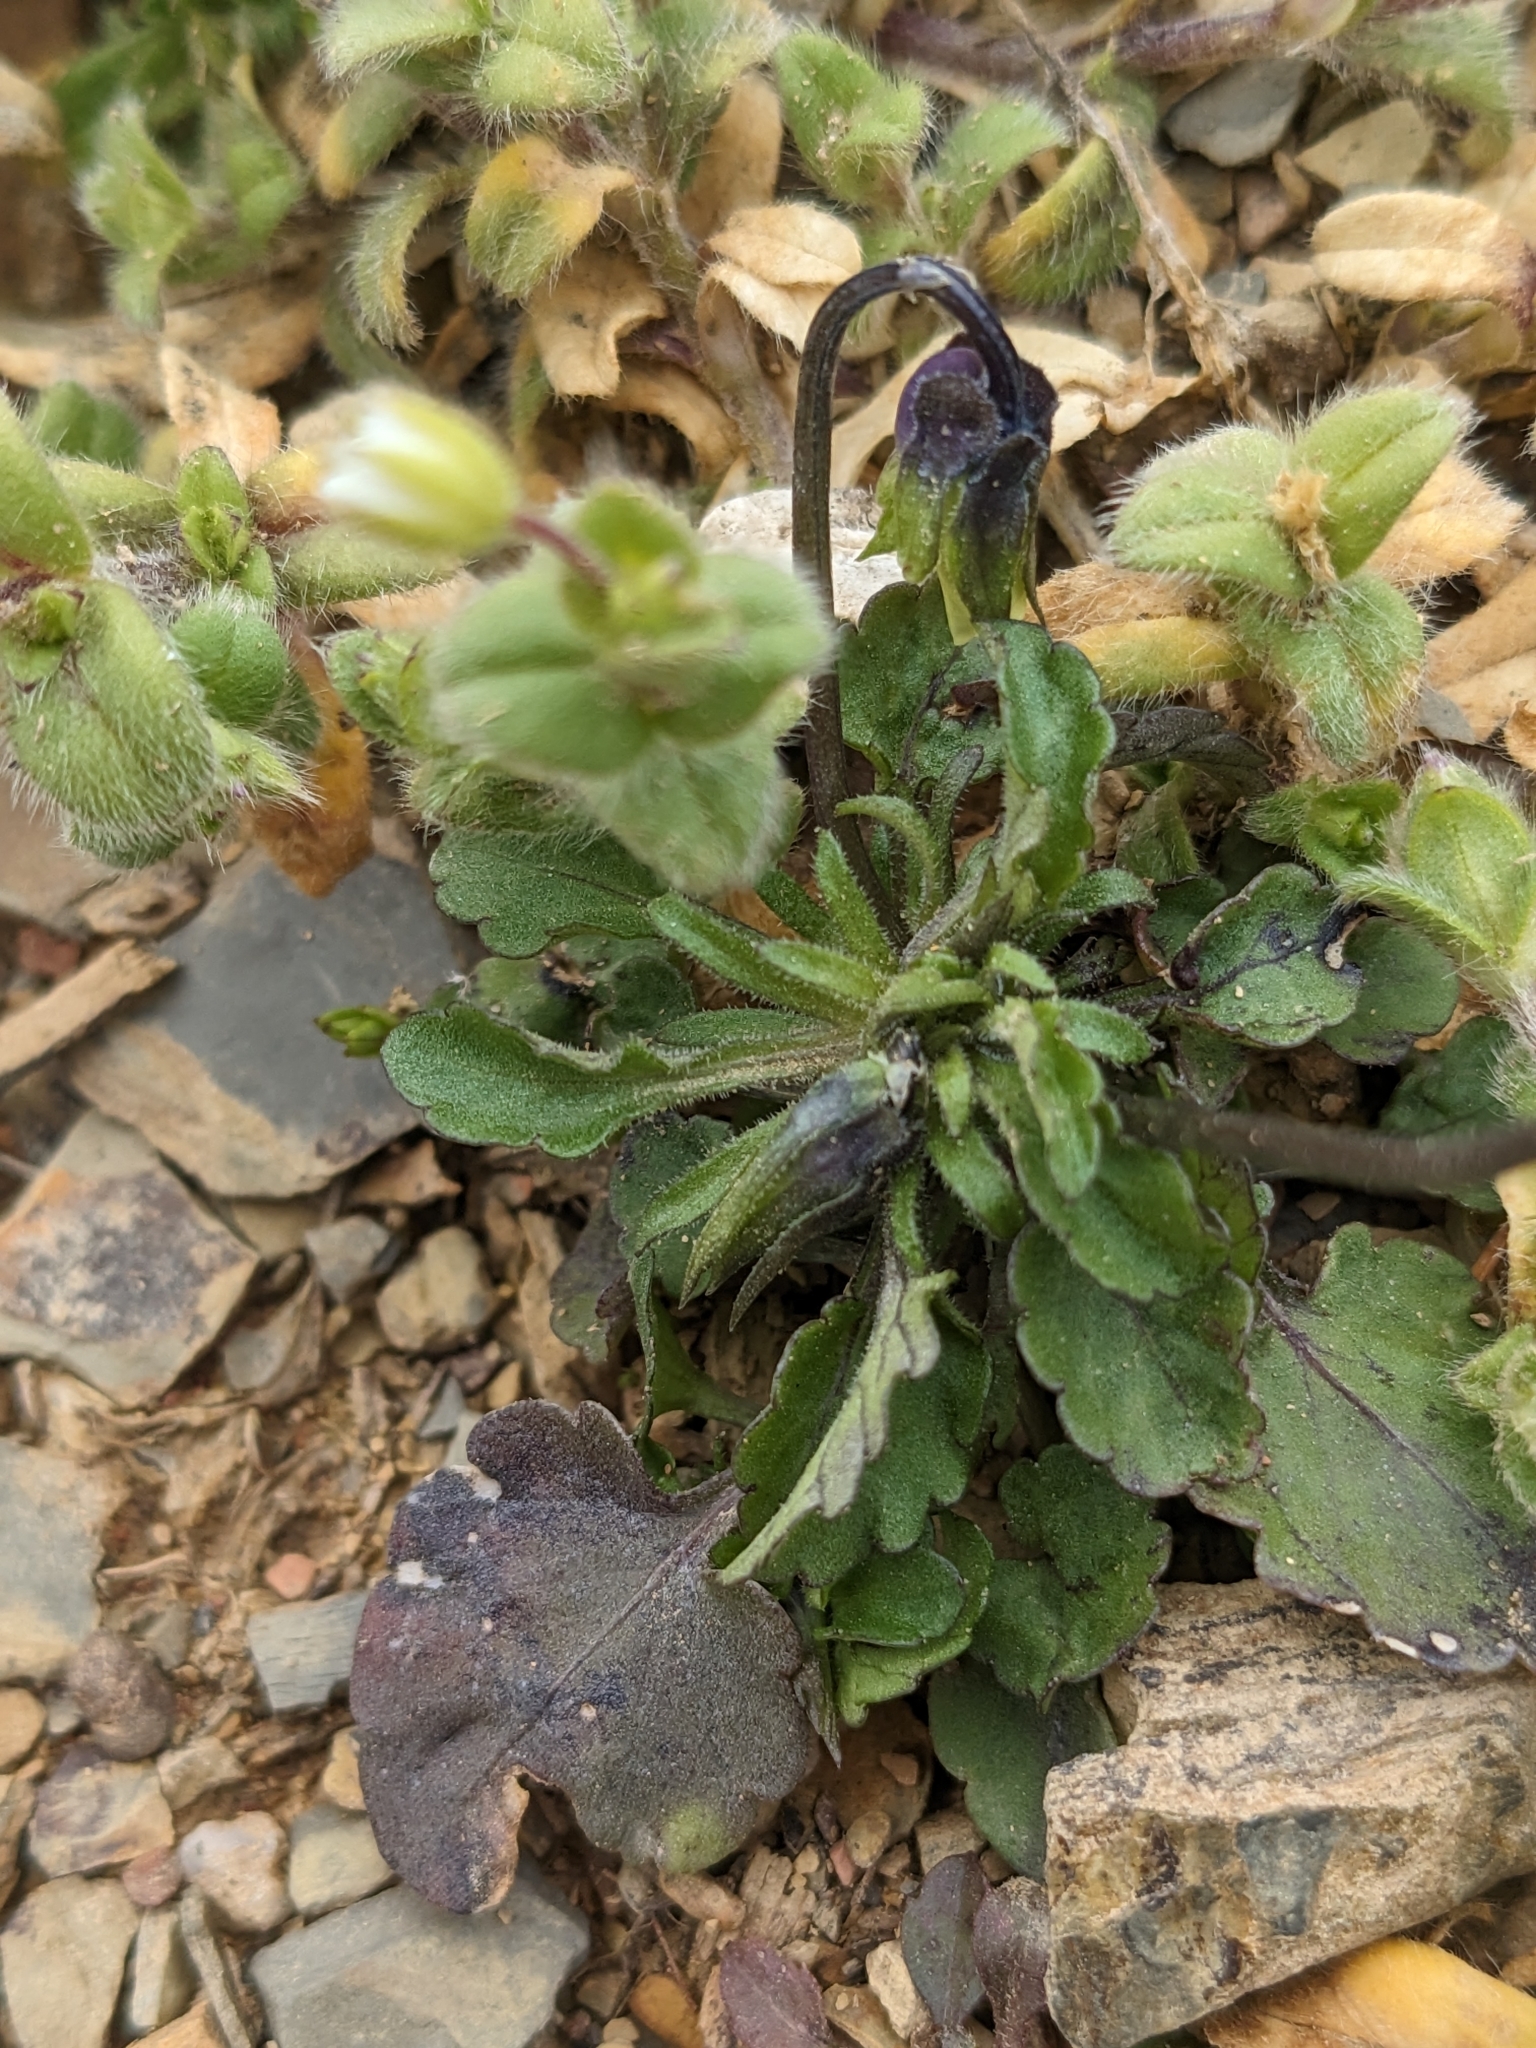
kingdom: Plantae
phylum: Tracheophyta
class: Magnoliopsida
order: Malpighiales
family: Violaceae
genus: Viola
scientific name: Viola arvensis
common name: Field pansy
